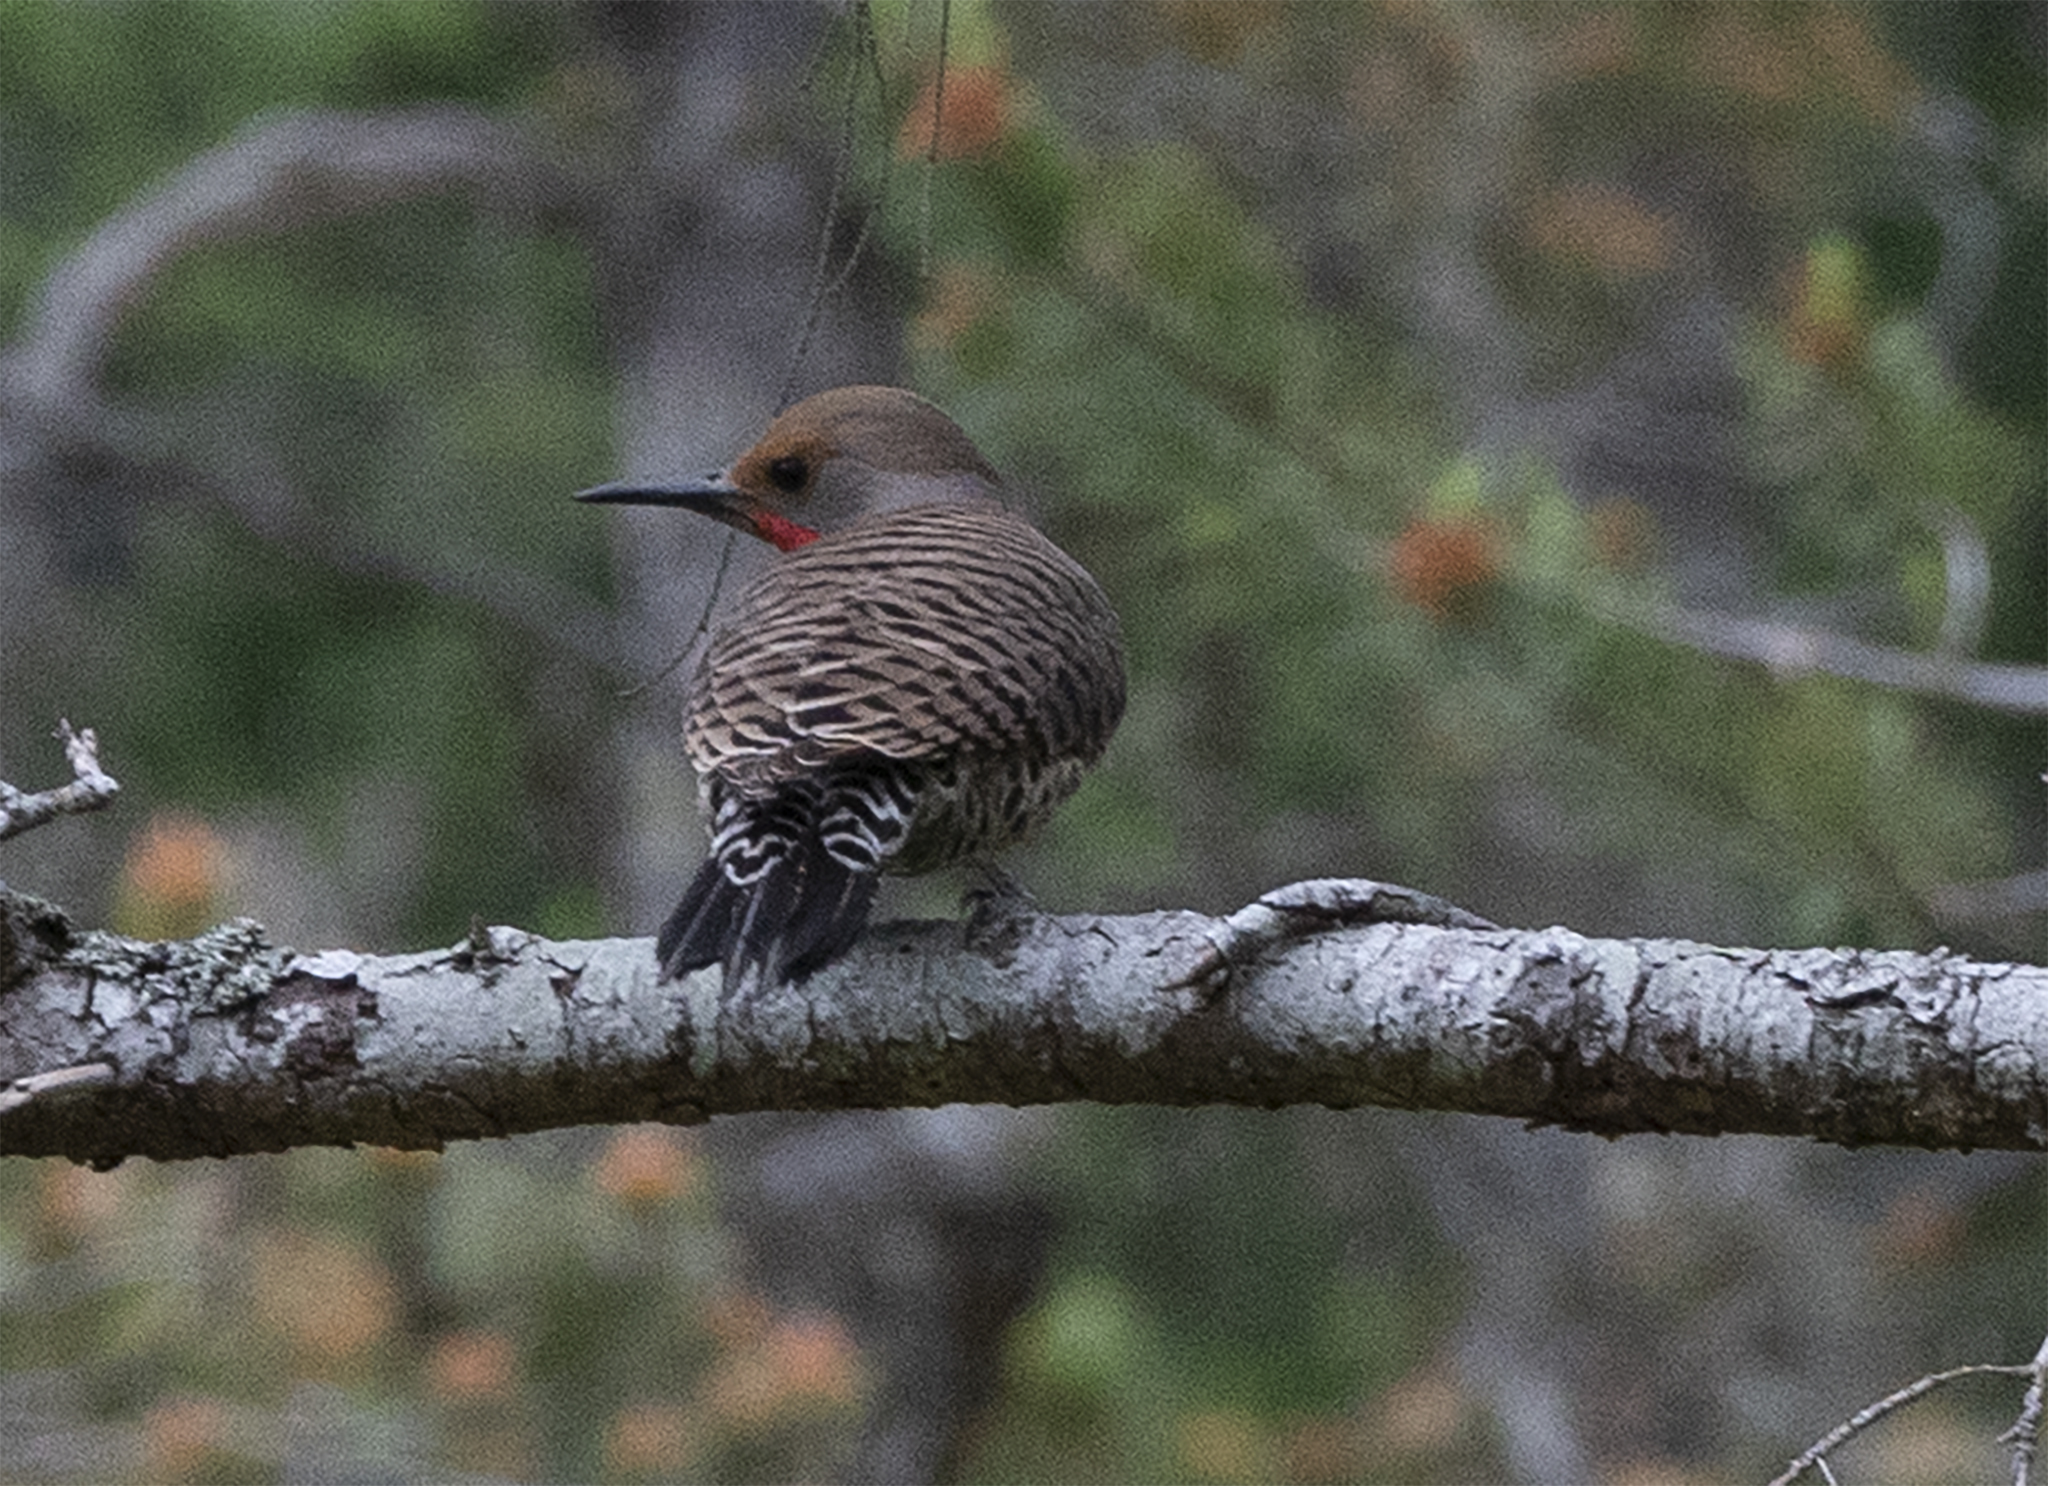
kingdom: Animalia
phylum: Chordata
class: Aves
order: Piciformes
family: Picidae
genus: Colaptes
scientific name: Colaptes auratus
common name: Northern flicker
